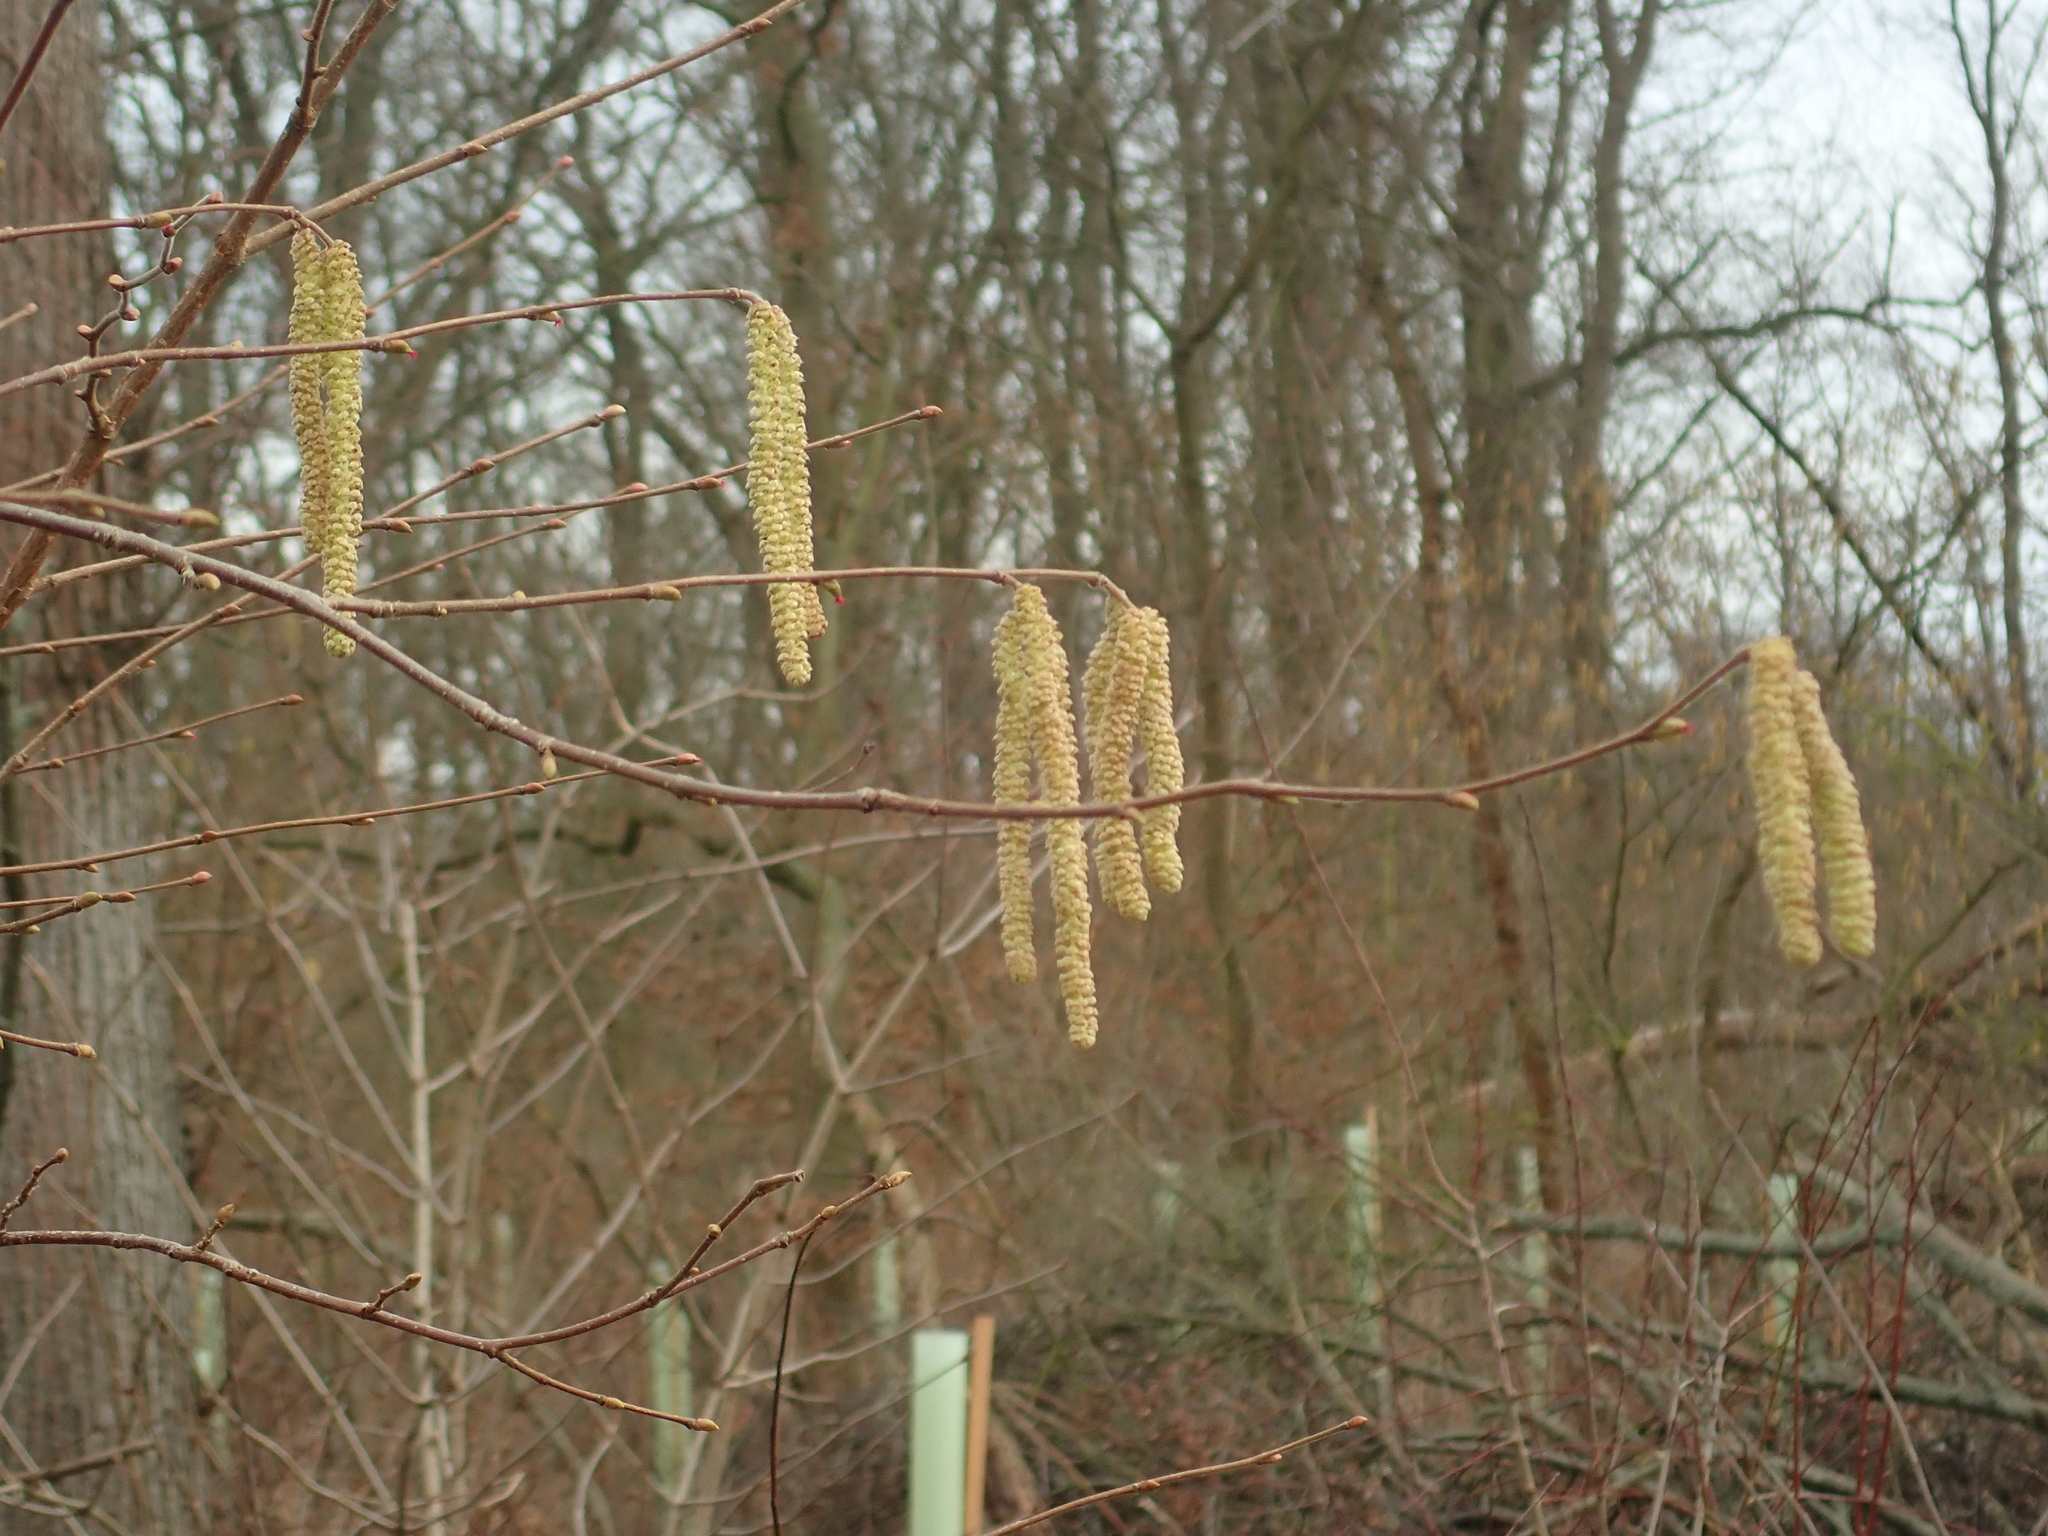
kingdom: Plantae
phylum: Tracheophyta
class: Magnoliopsida
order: Fagales
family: Betulaceae
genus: Corylus
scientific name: Corylus avellana
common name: European hazel
